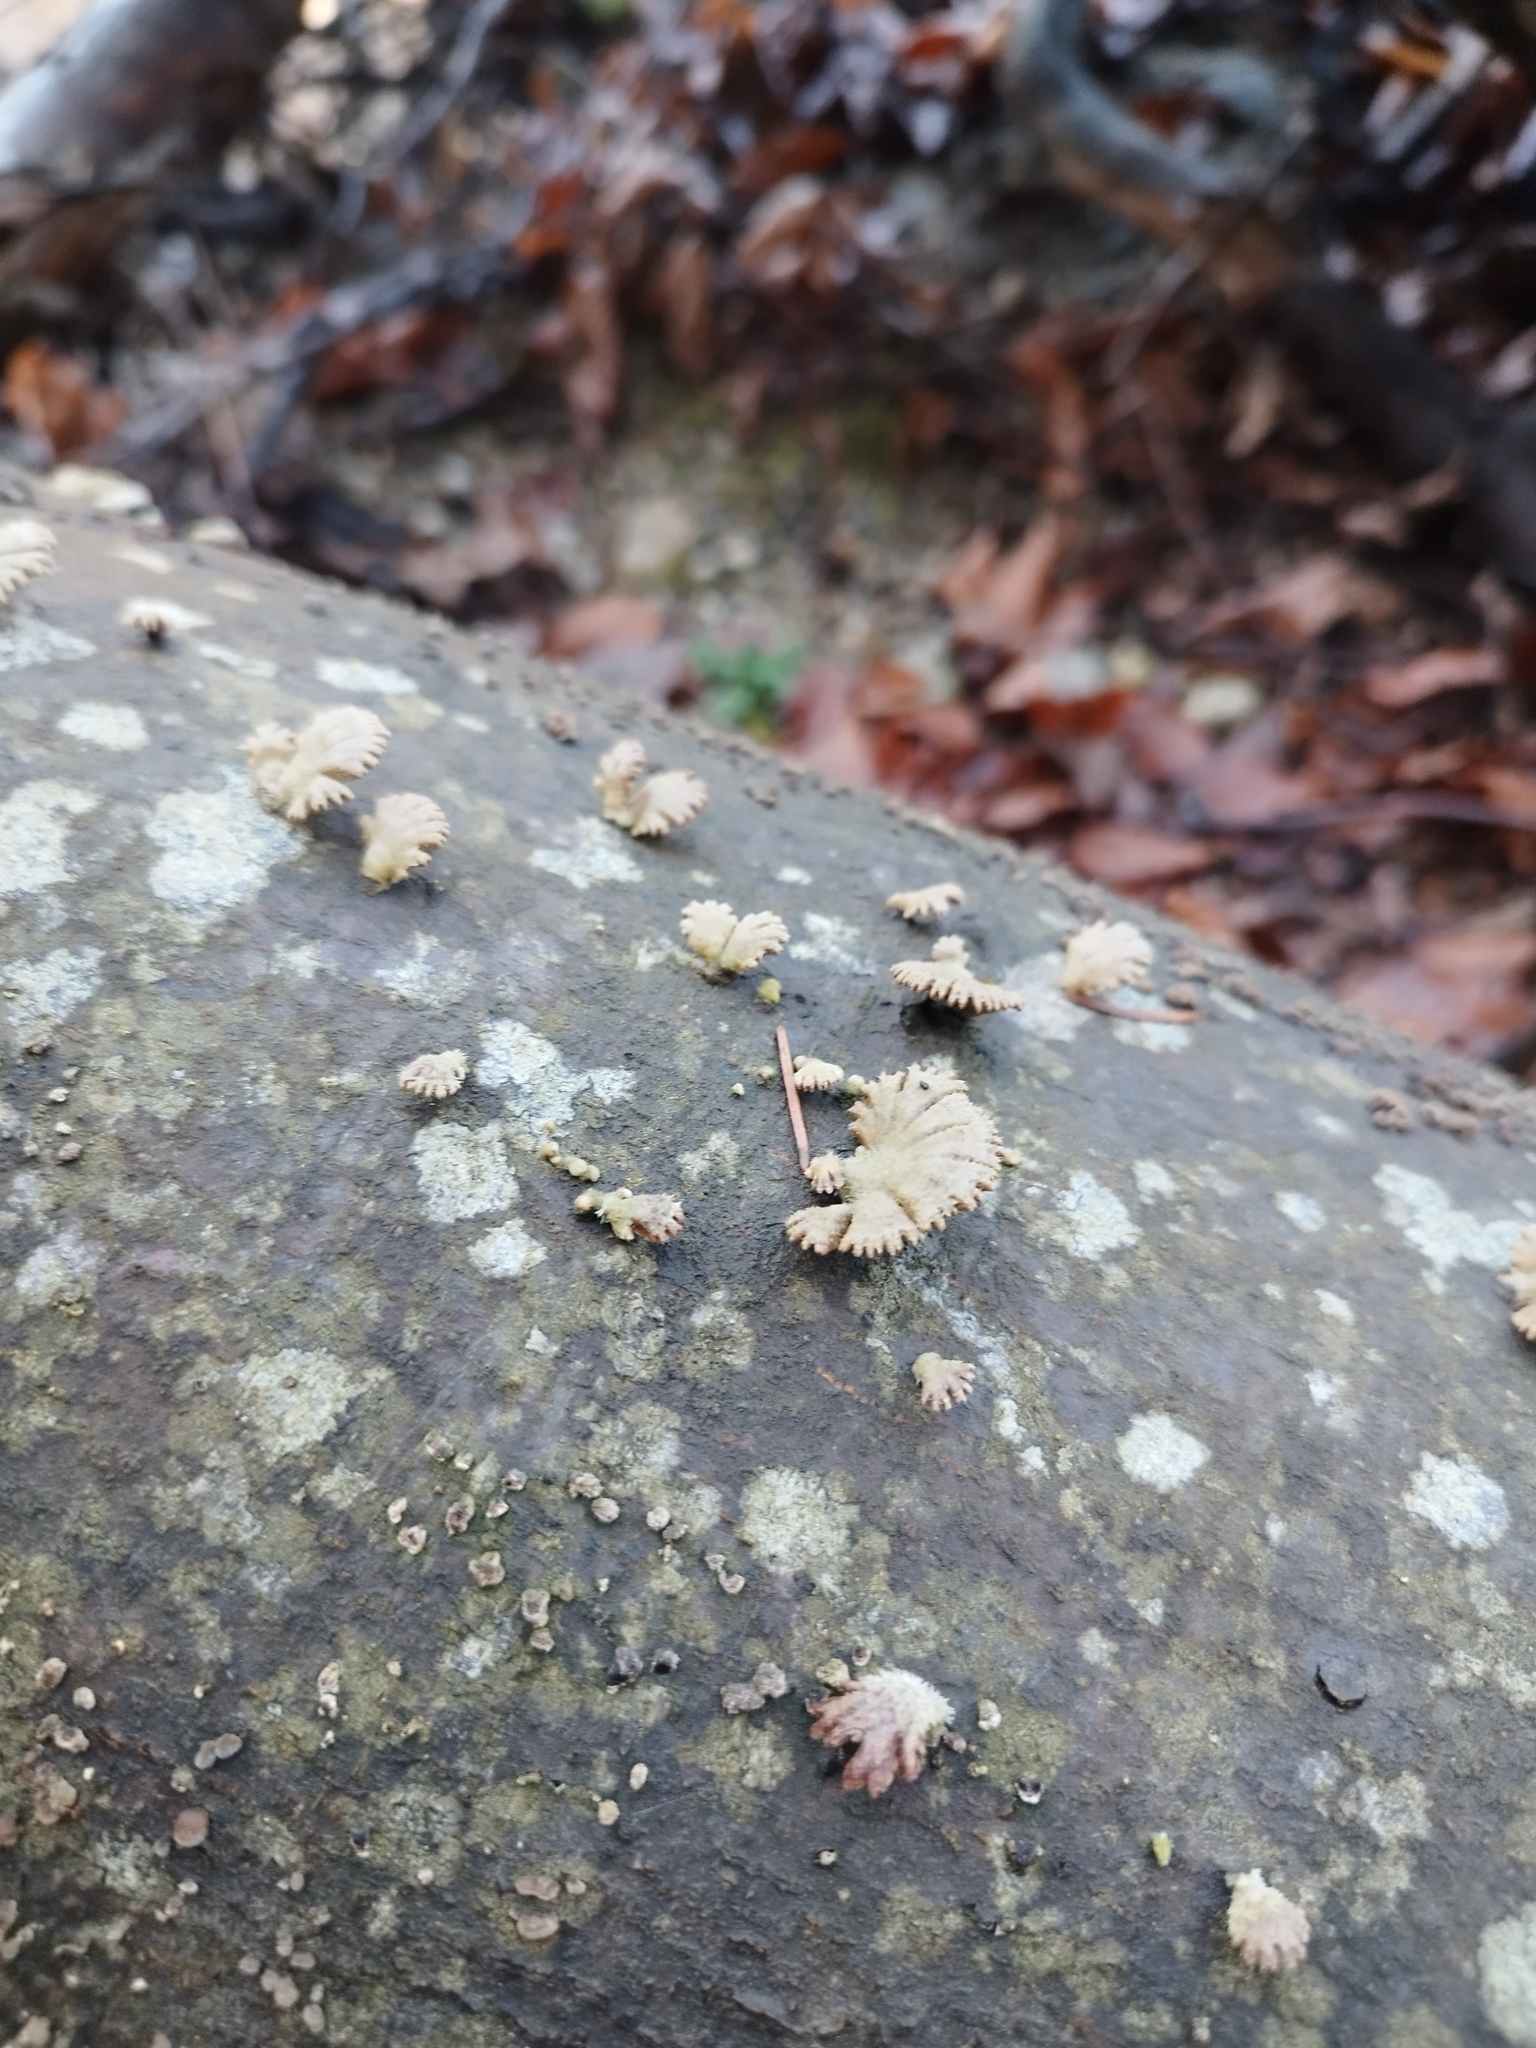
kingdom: Fungi
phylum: Basidiomycota
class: Agaricomycetes
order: Agaricales
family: Schizophyllaceae
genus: Schizophyllum
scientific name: Schizophyllum commune
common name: Common porecrust
